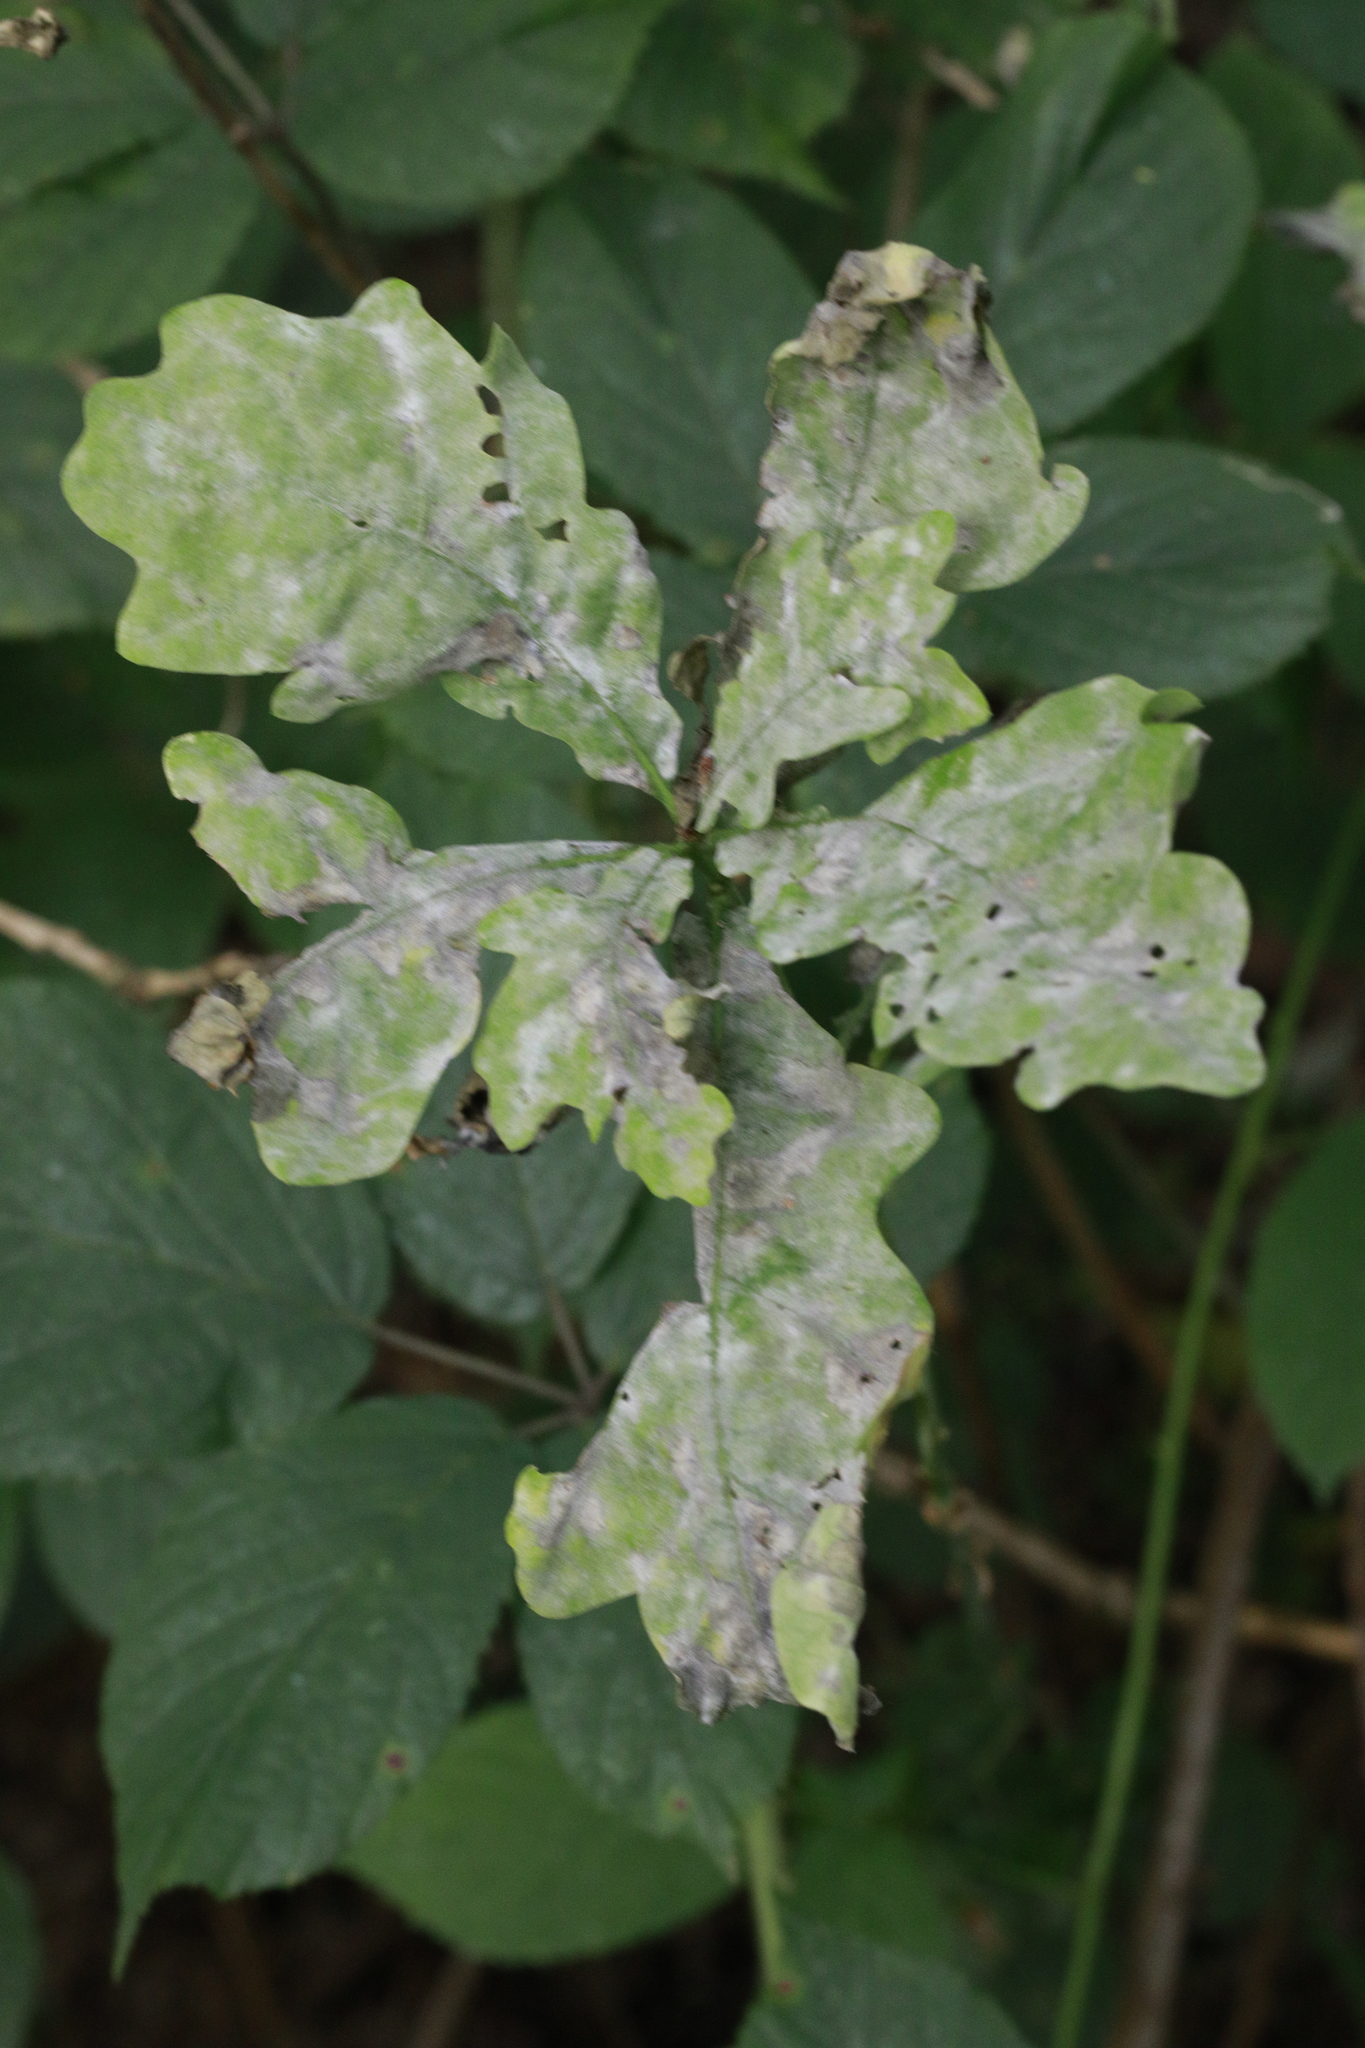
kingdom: Fungi
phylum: Ascomycota
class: Leotiomycetes
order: Helotiales
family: Erysiphaceae
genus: Erysiphe
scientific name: Erysiphe alphitoides
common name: Oak mildew
